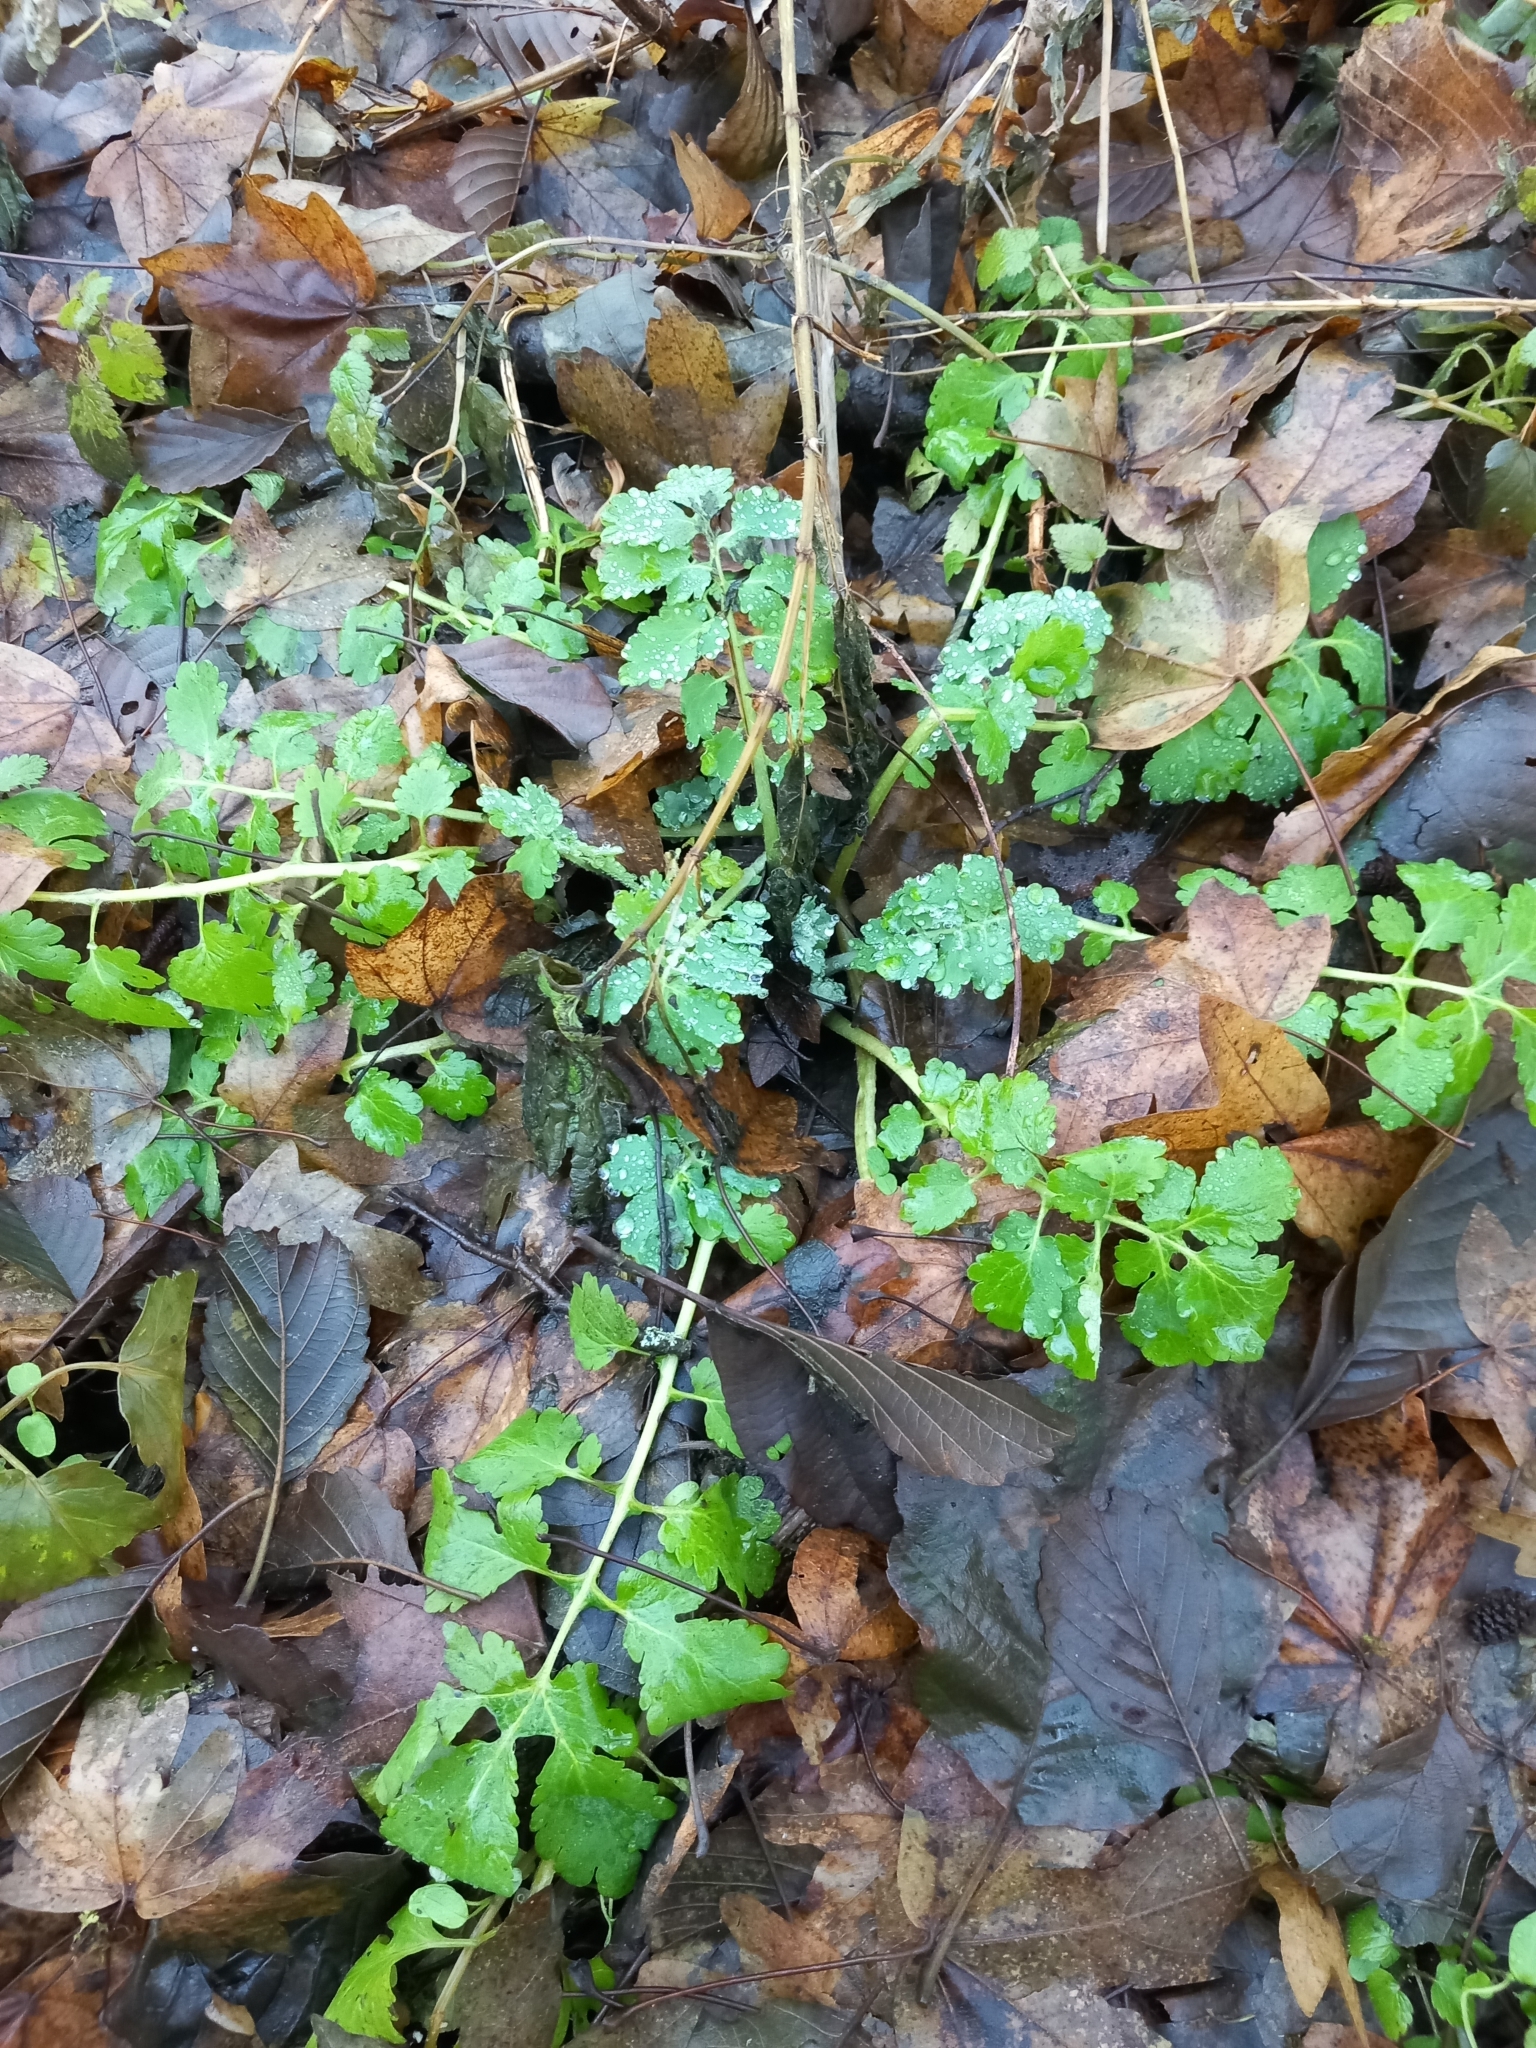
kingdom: Plantae
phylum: Tracheophyta
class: Magnoliopsida
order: Ranunculales
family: Papaveraceae
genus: Chelidonium
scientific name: Chelidonium majus
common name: Greater celandine
